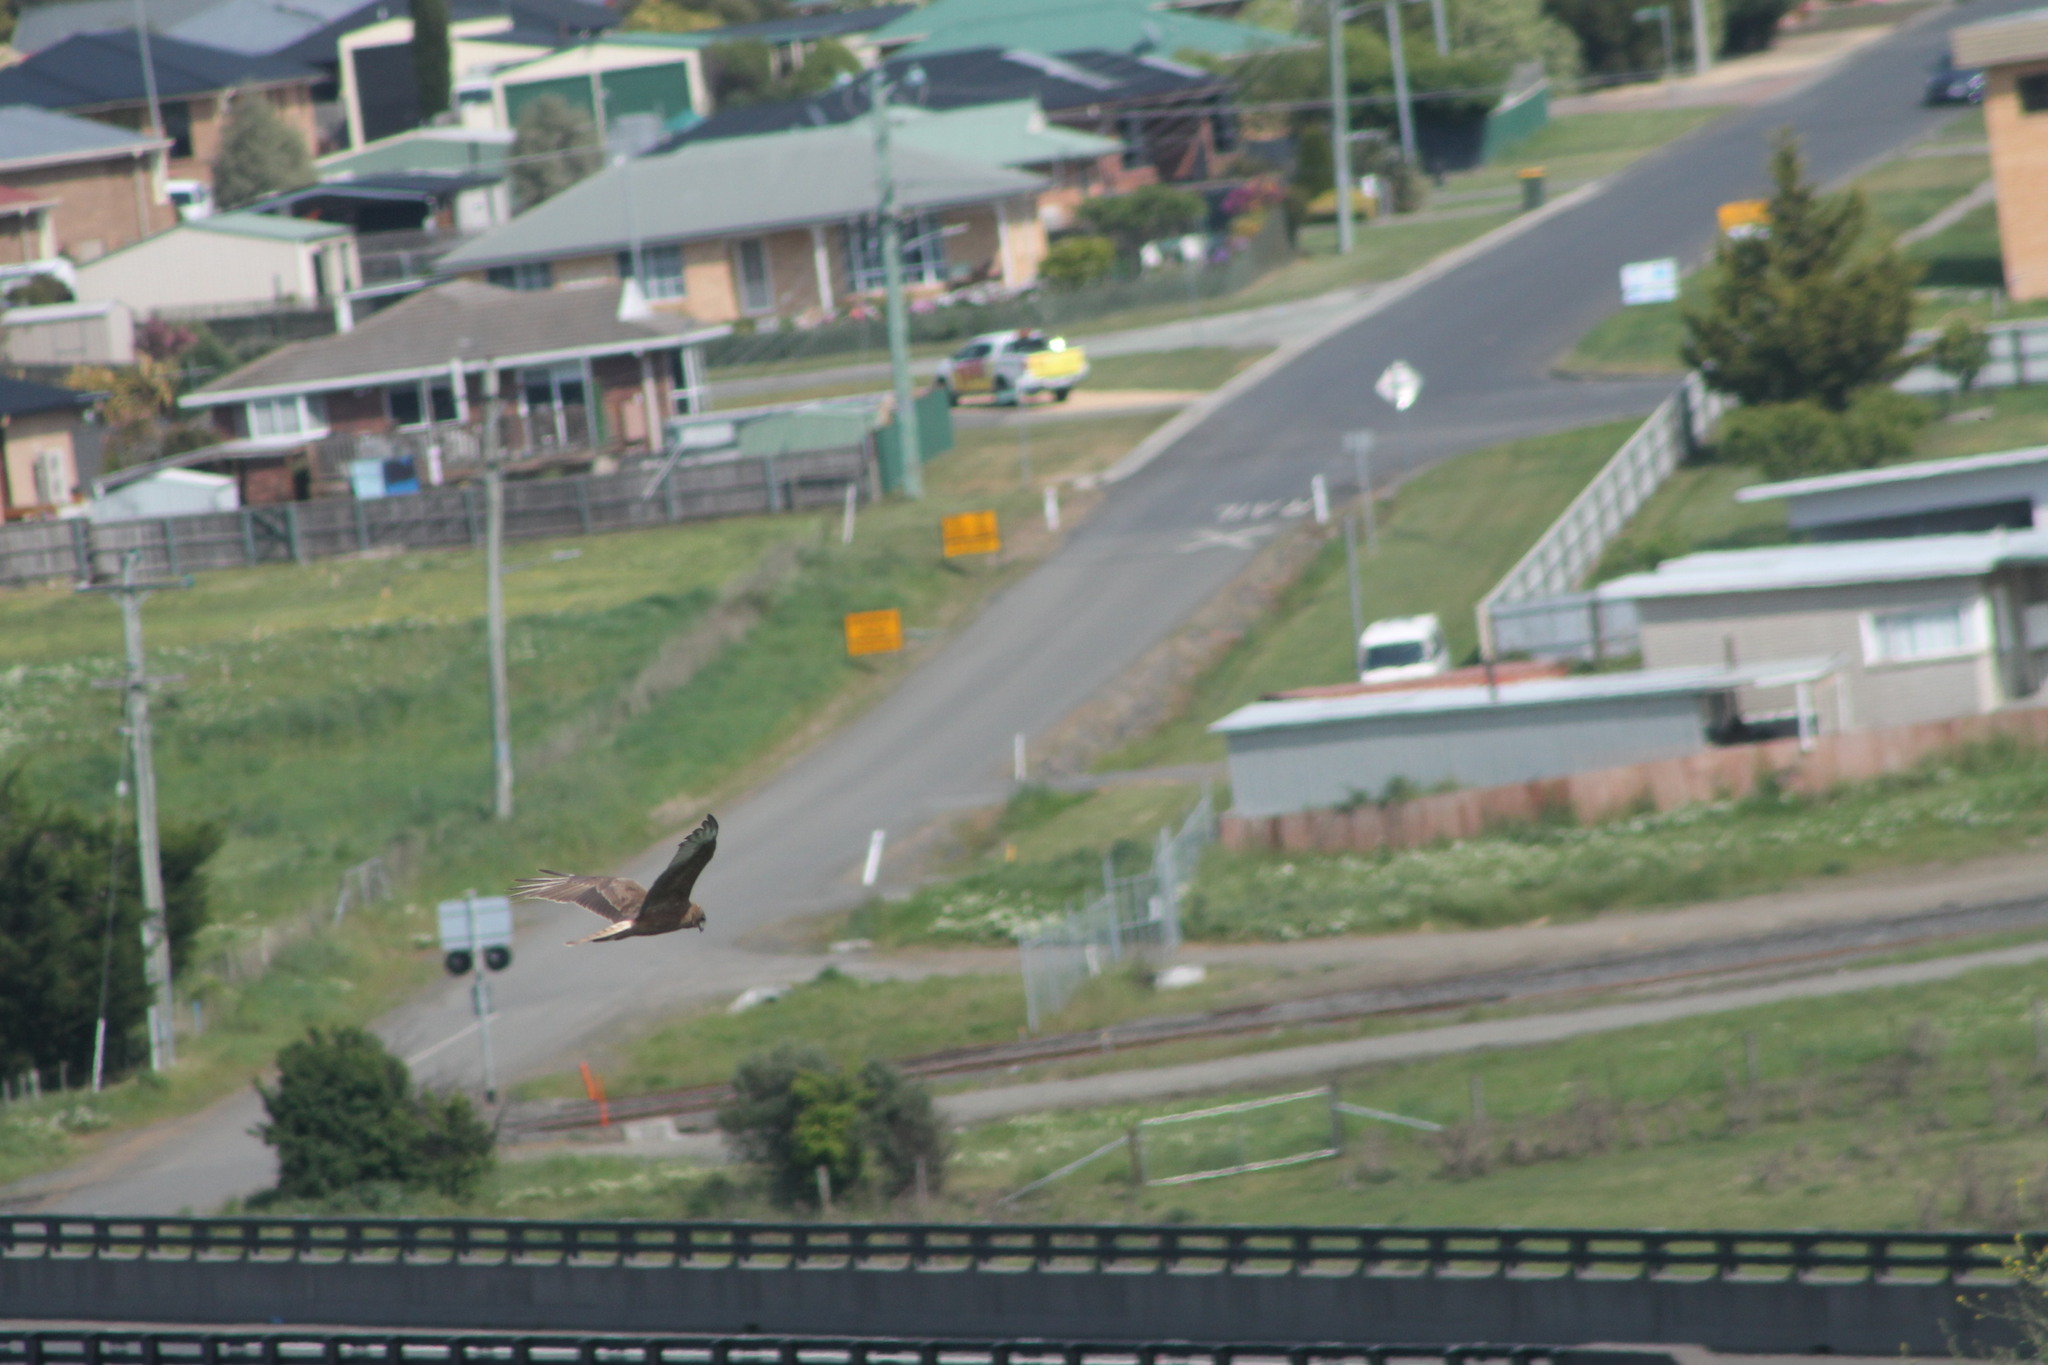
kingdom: Animalia
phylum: Chordata
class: Aves
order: Accipitriformes
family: Accipitridae
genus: Circus
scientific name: Circus approximans
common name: Swamp harrier
